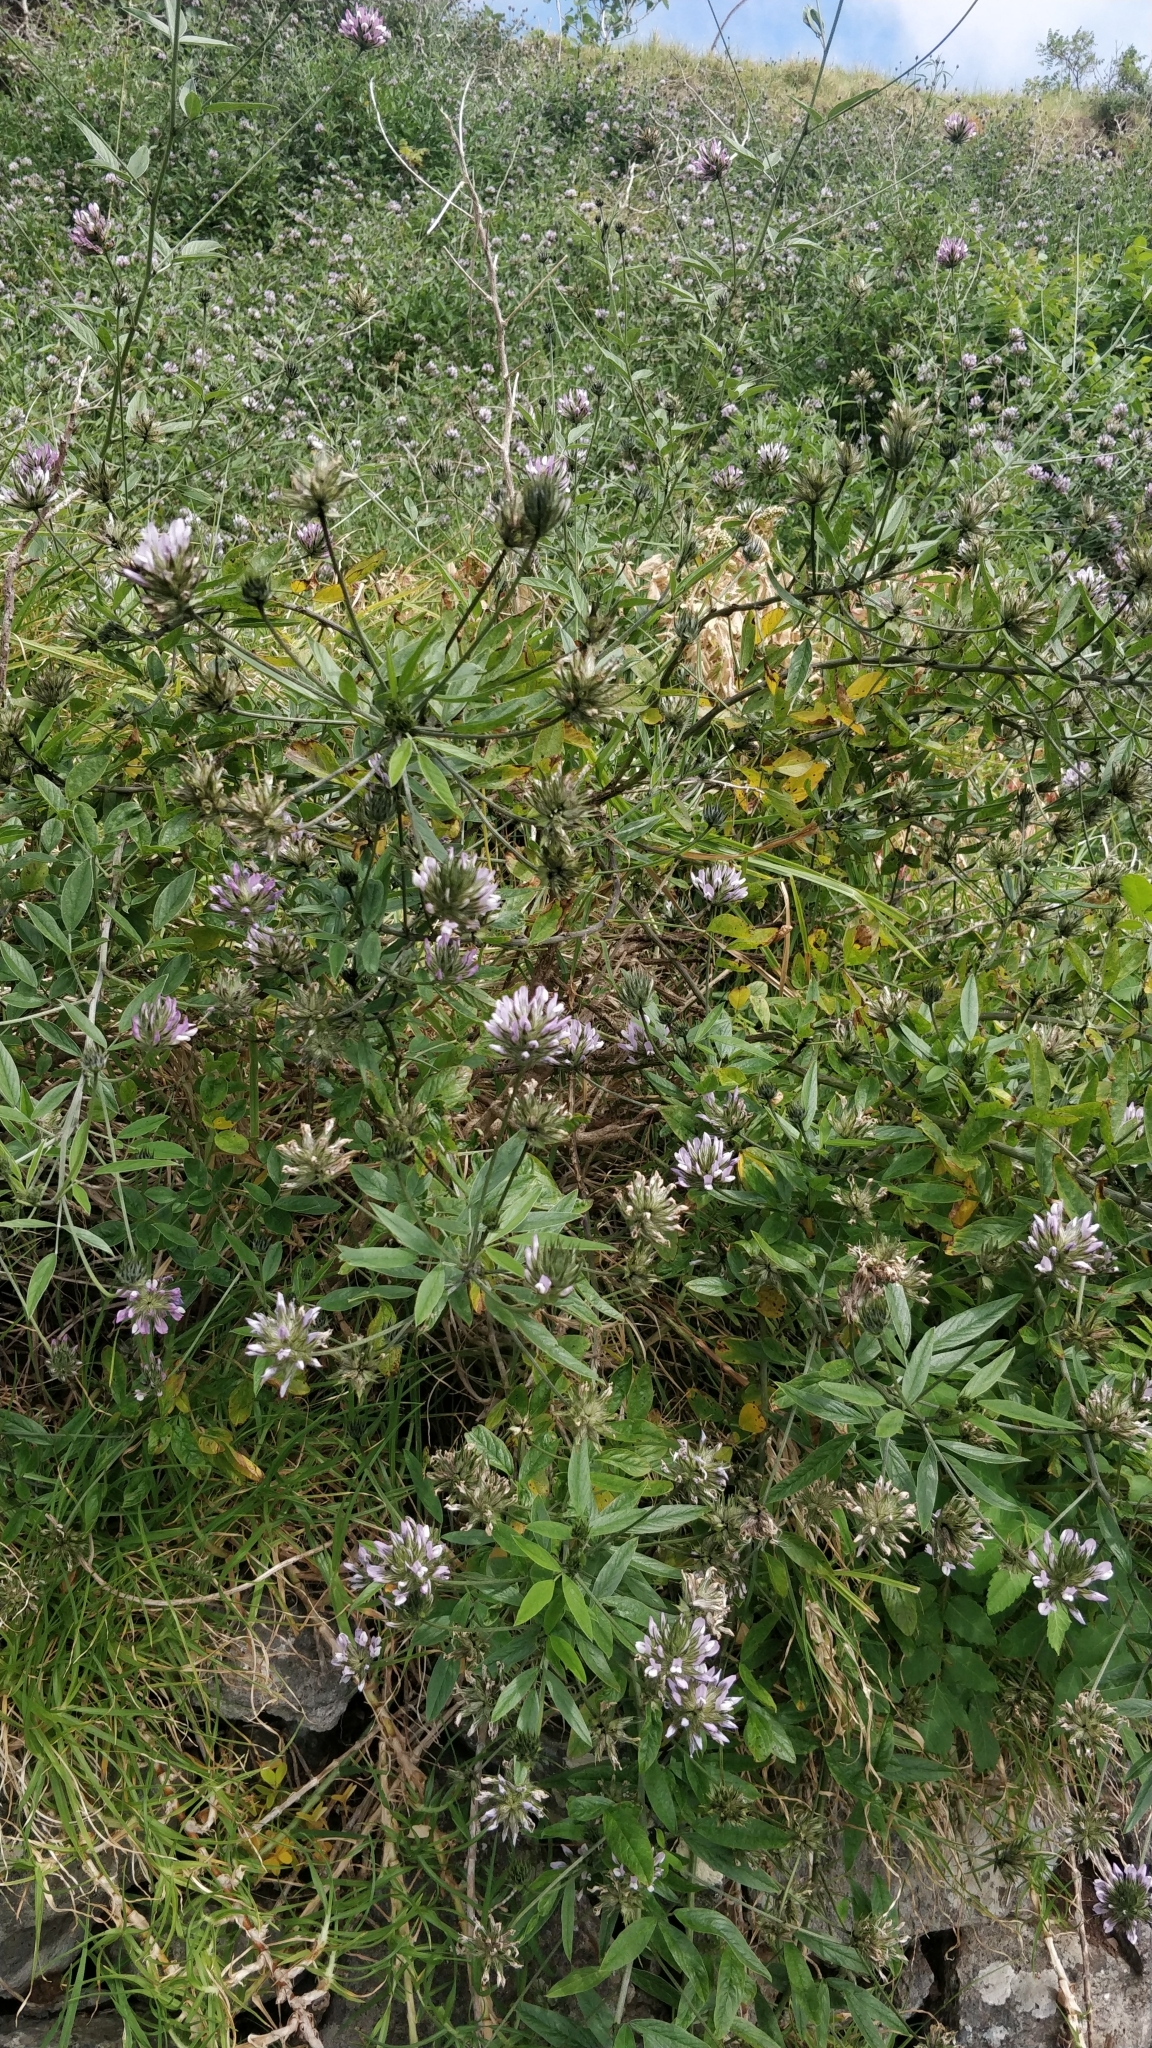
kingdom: Plantae
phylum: Tracheophyta
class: Magnoliopsida
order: Fabales
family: Fabaceae
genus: Bituminaria
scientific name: Bituminaria bituminosa
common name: Arabian pea
